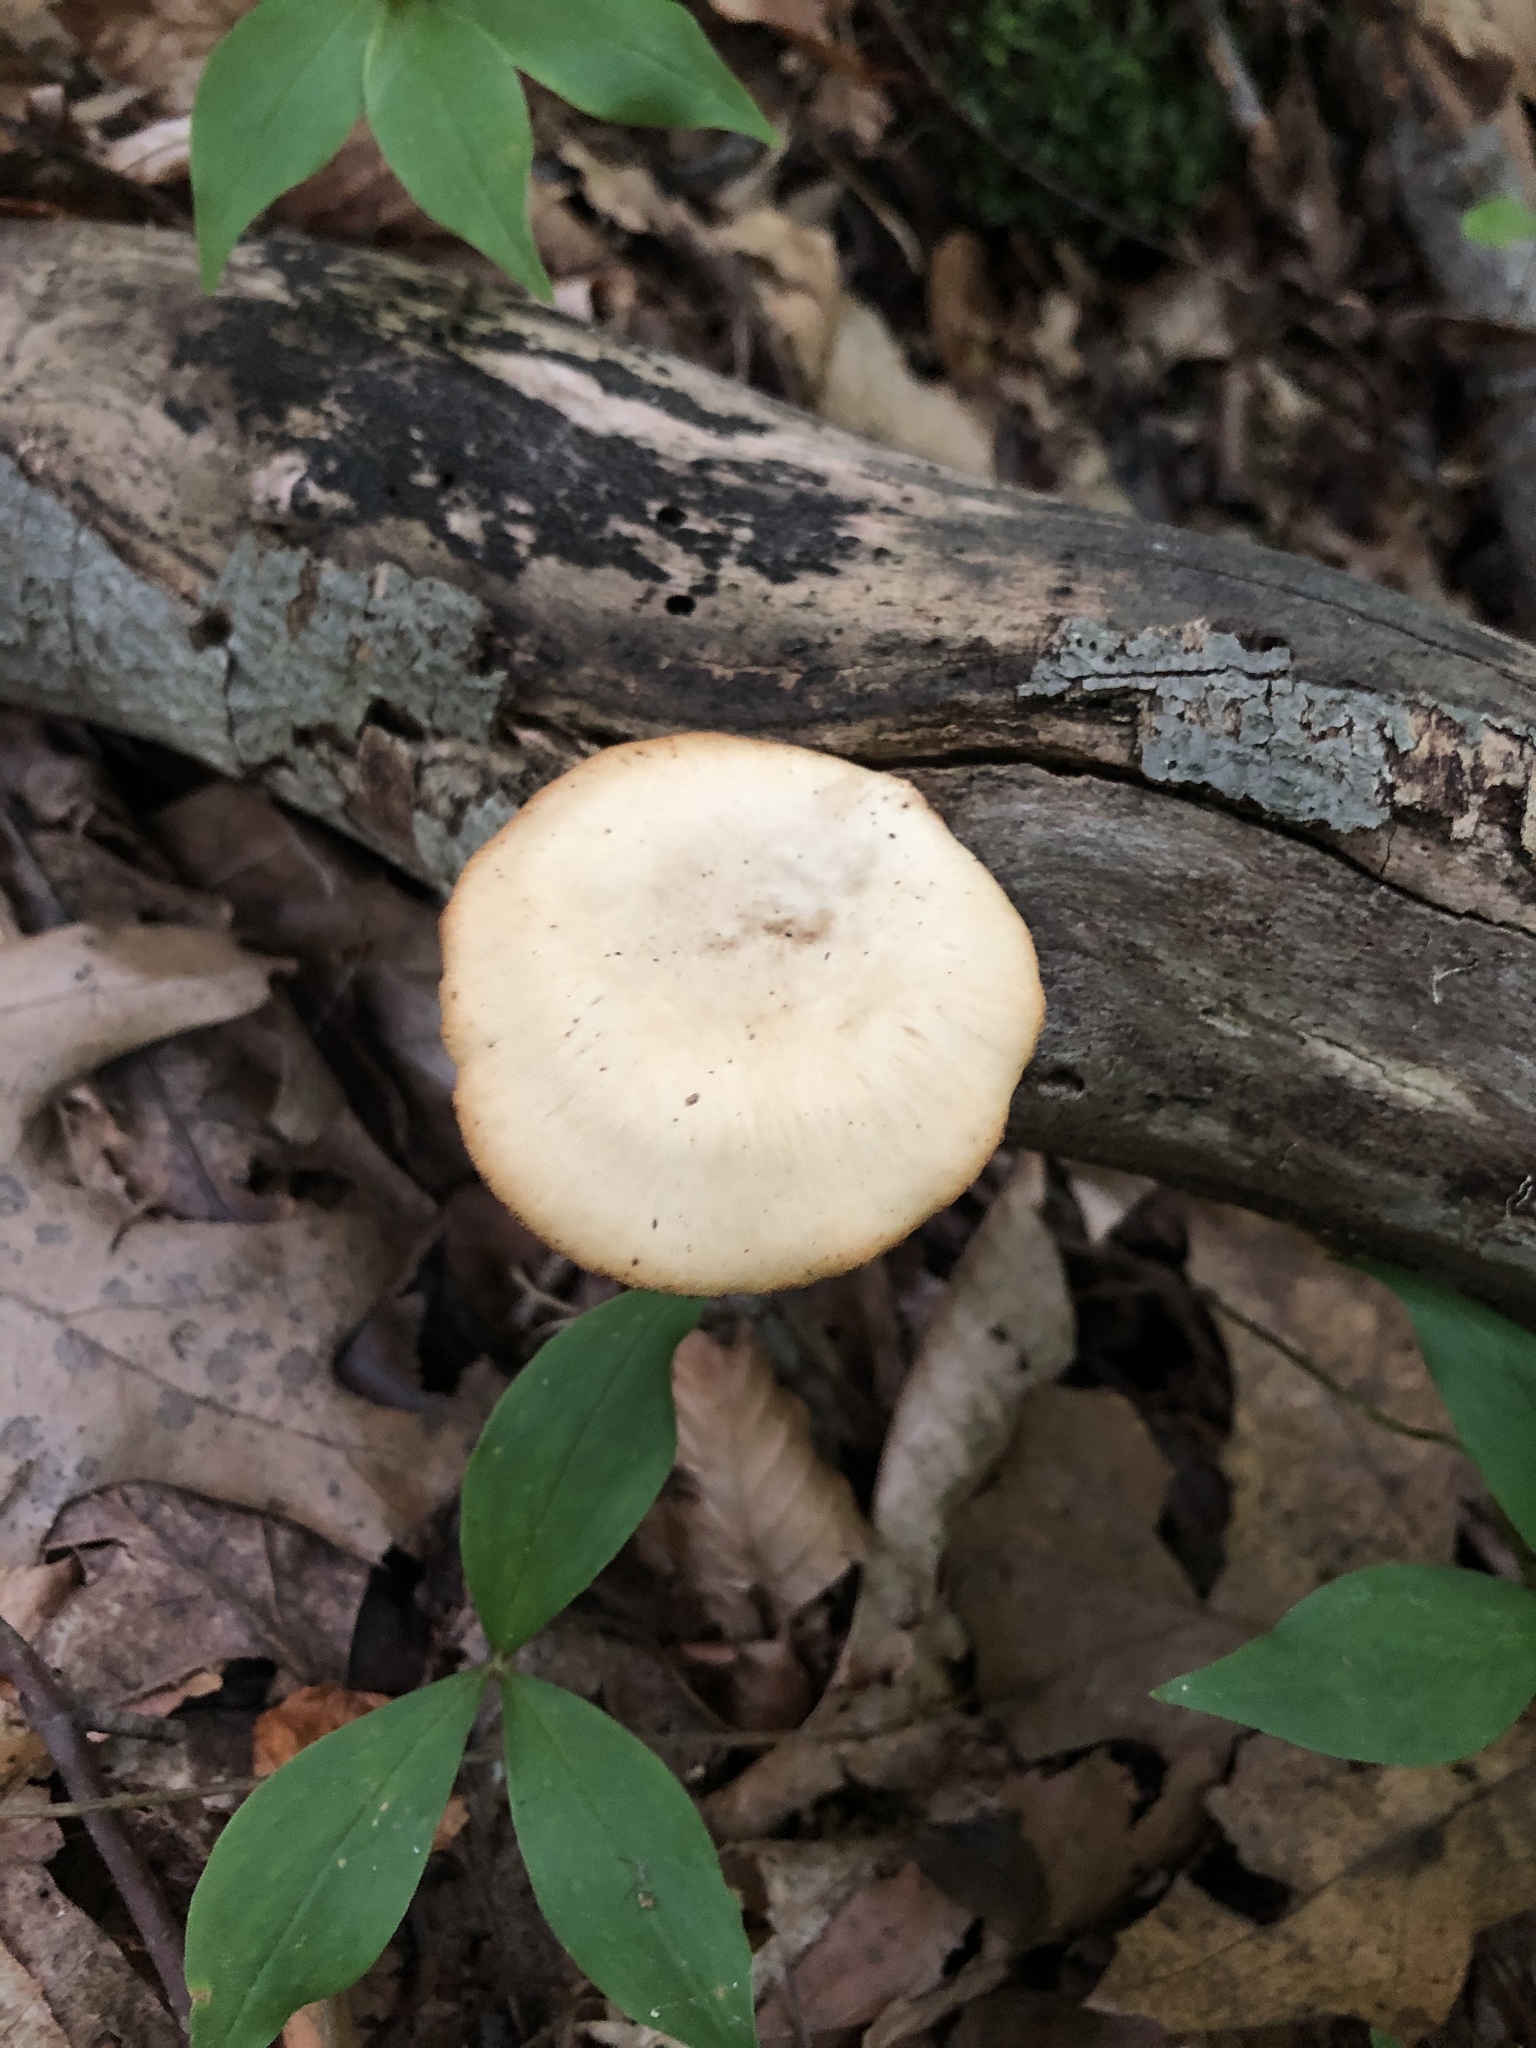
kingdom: Fungi
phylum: Basidiomycota
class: Agaricomycetes
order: Polyporales
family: Polyporaceae
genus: Cerioporus
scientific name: Cerioporus varius
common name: Elegant polypore
